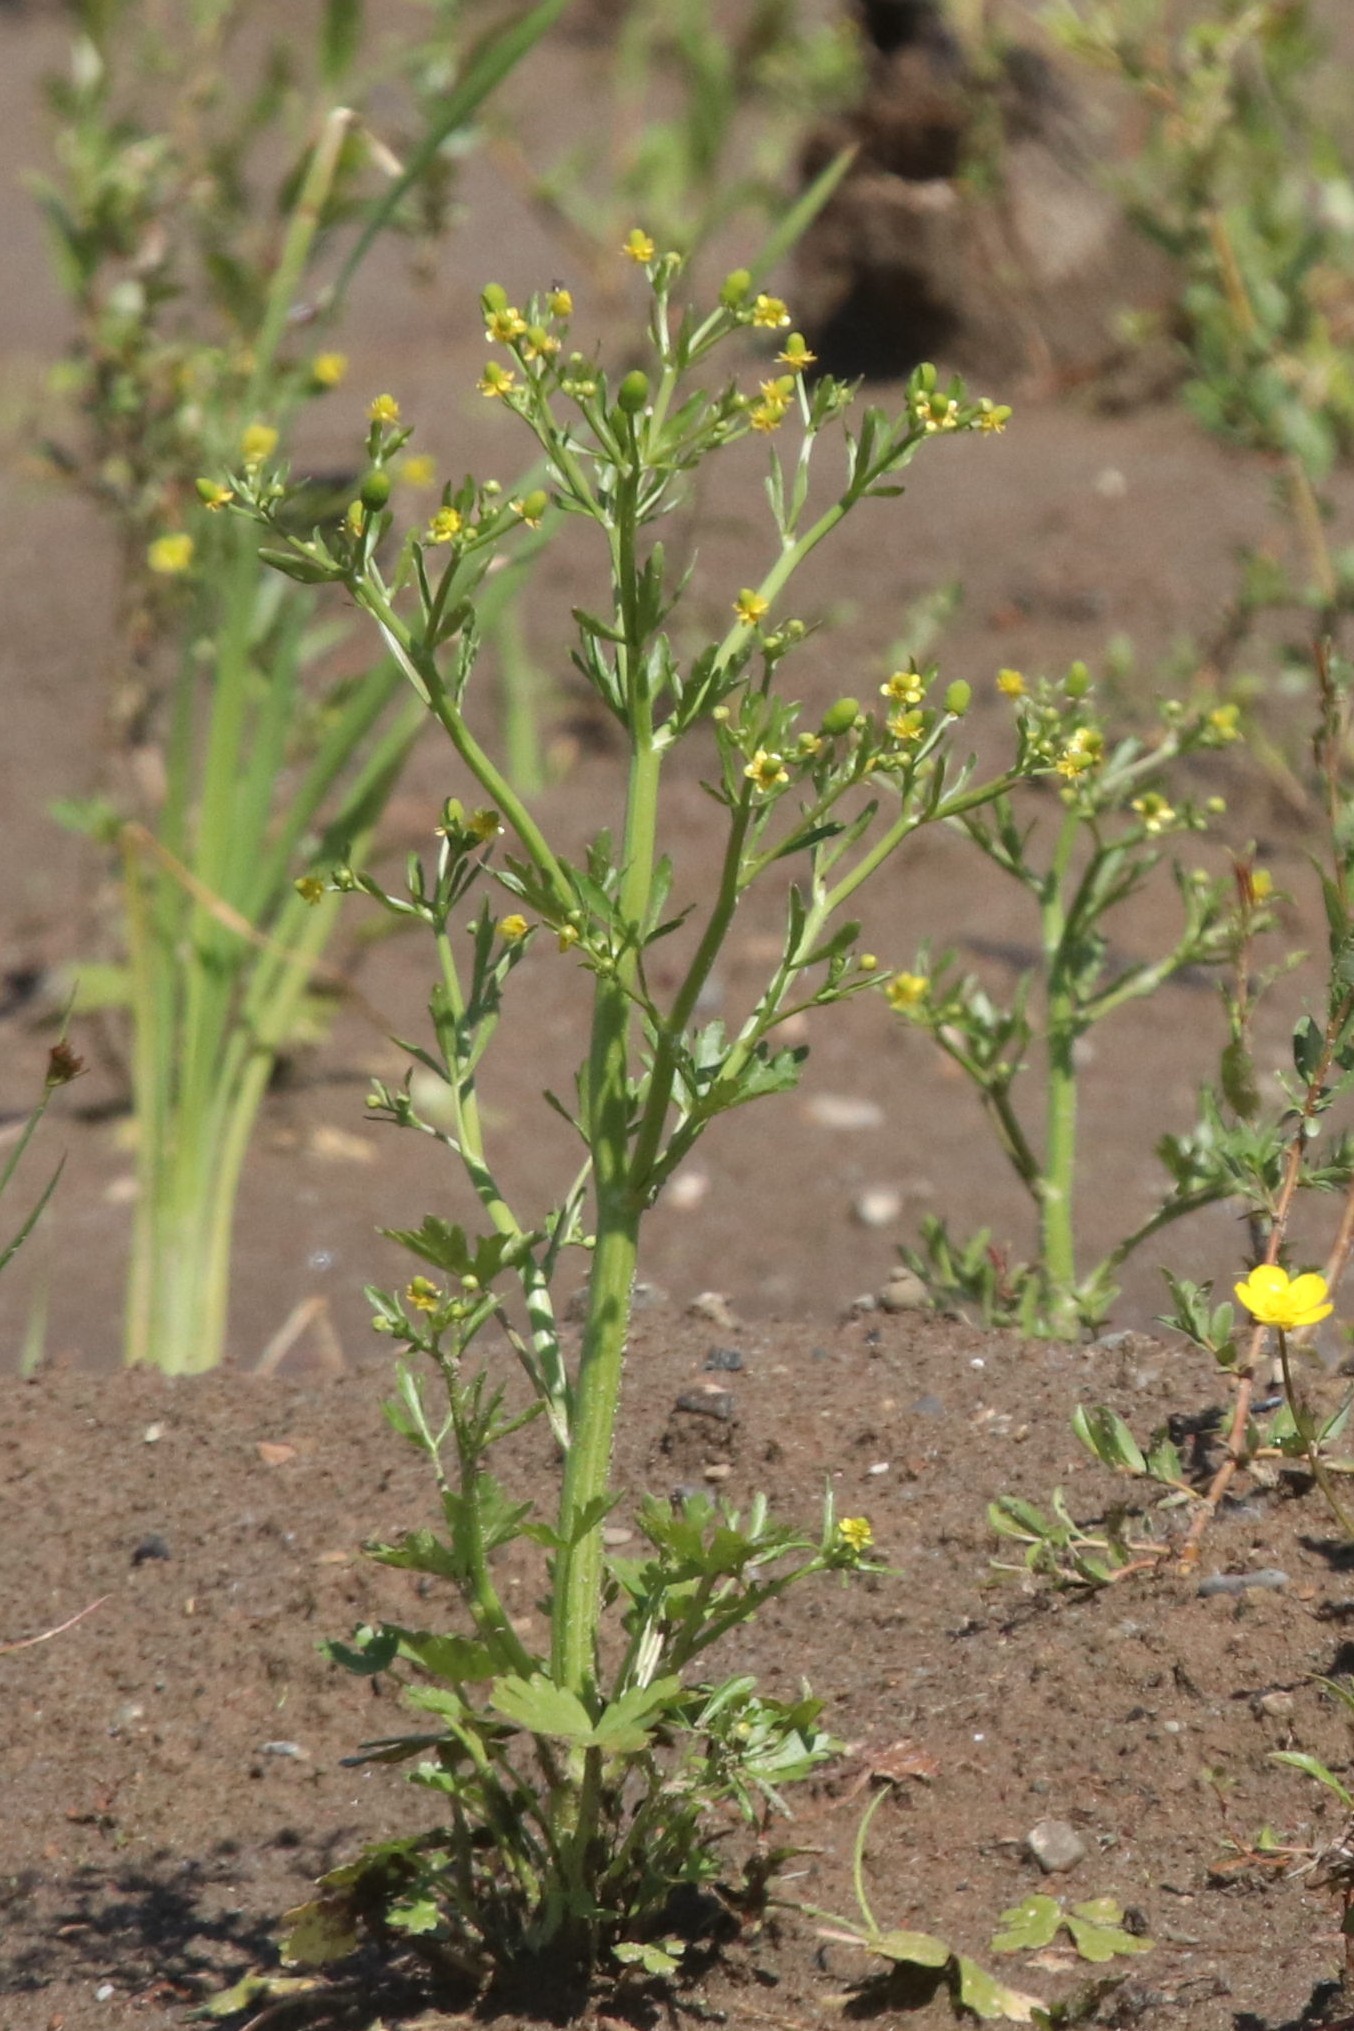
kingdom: Plantae
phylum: Tracheophyta
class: Magnoliopsida
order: Ranunculales
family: Ranunculaceae
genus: Ranunculus
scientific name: Ranunculus sceleratus
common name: Celery-leaved buttercup
